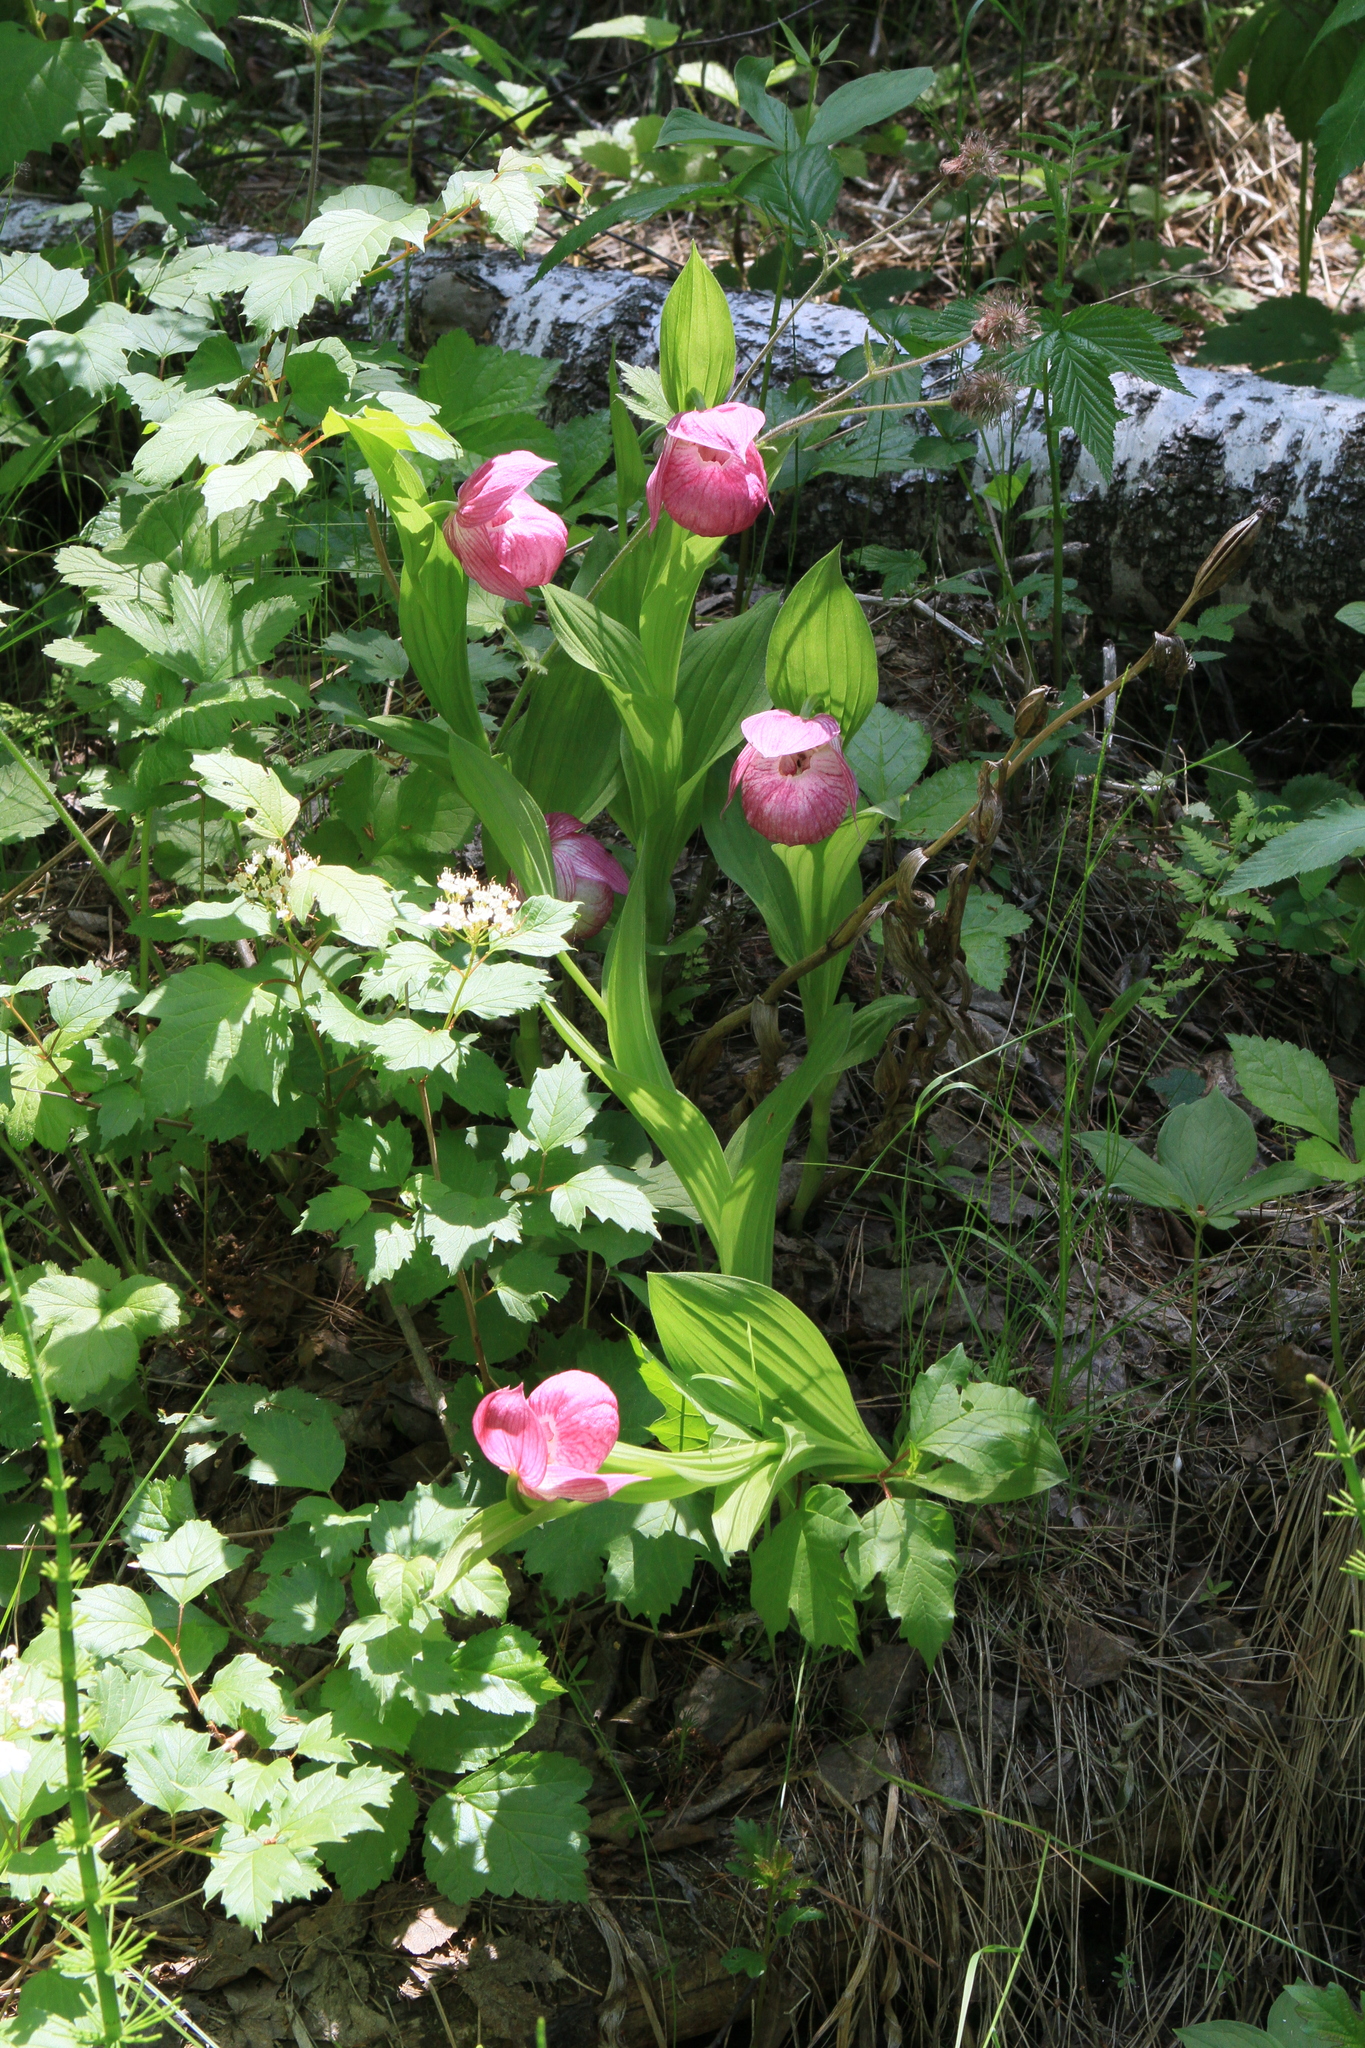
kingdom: Plantae
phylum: Tracheophyta
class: Liliopsida
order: Asparagales
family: Orchidaceae
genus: Cypripedium
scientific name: Cypripedium macranthos
